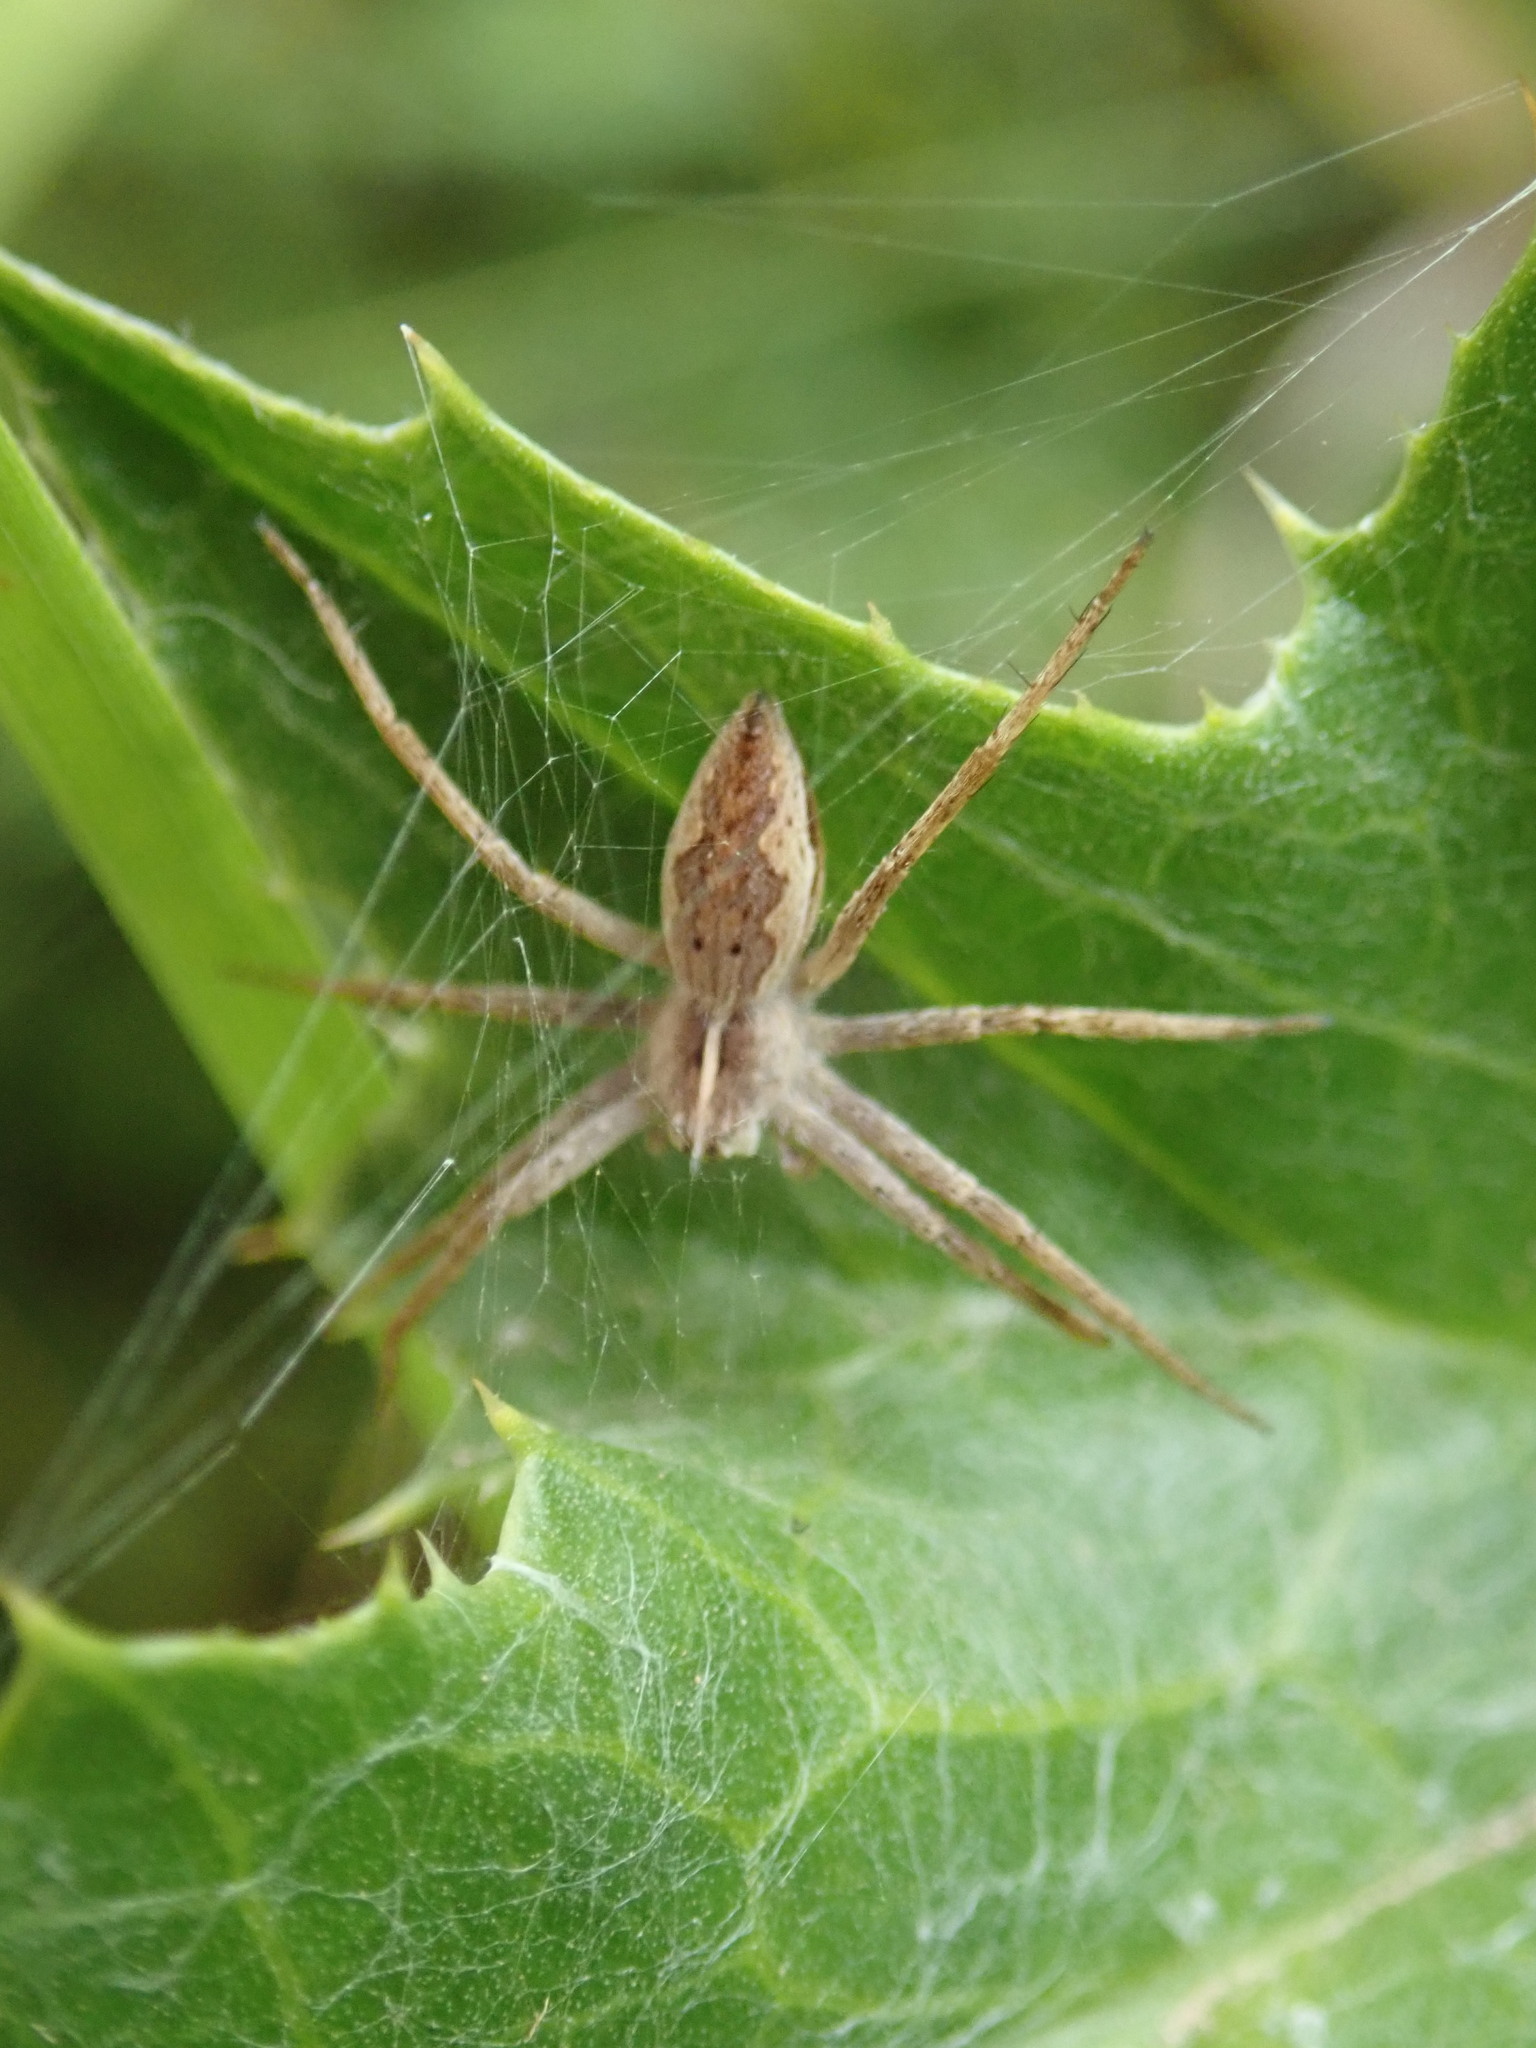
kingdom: Animalia
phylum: Arthropoda
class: Arachnida
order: Araneae
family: Pisauridae
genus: Pisaura
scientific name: Pisaura mirabilis
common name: Tent spider
